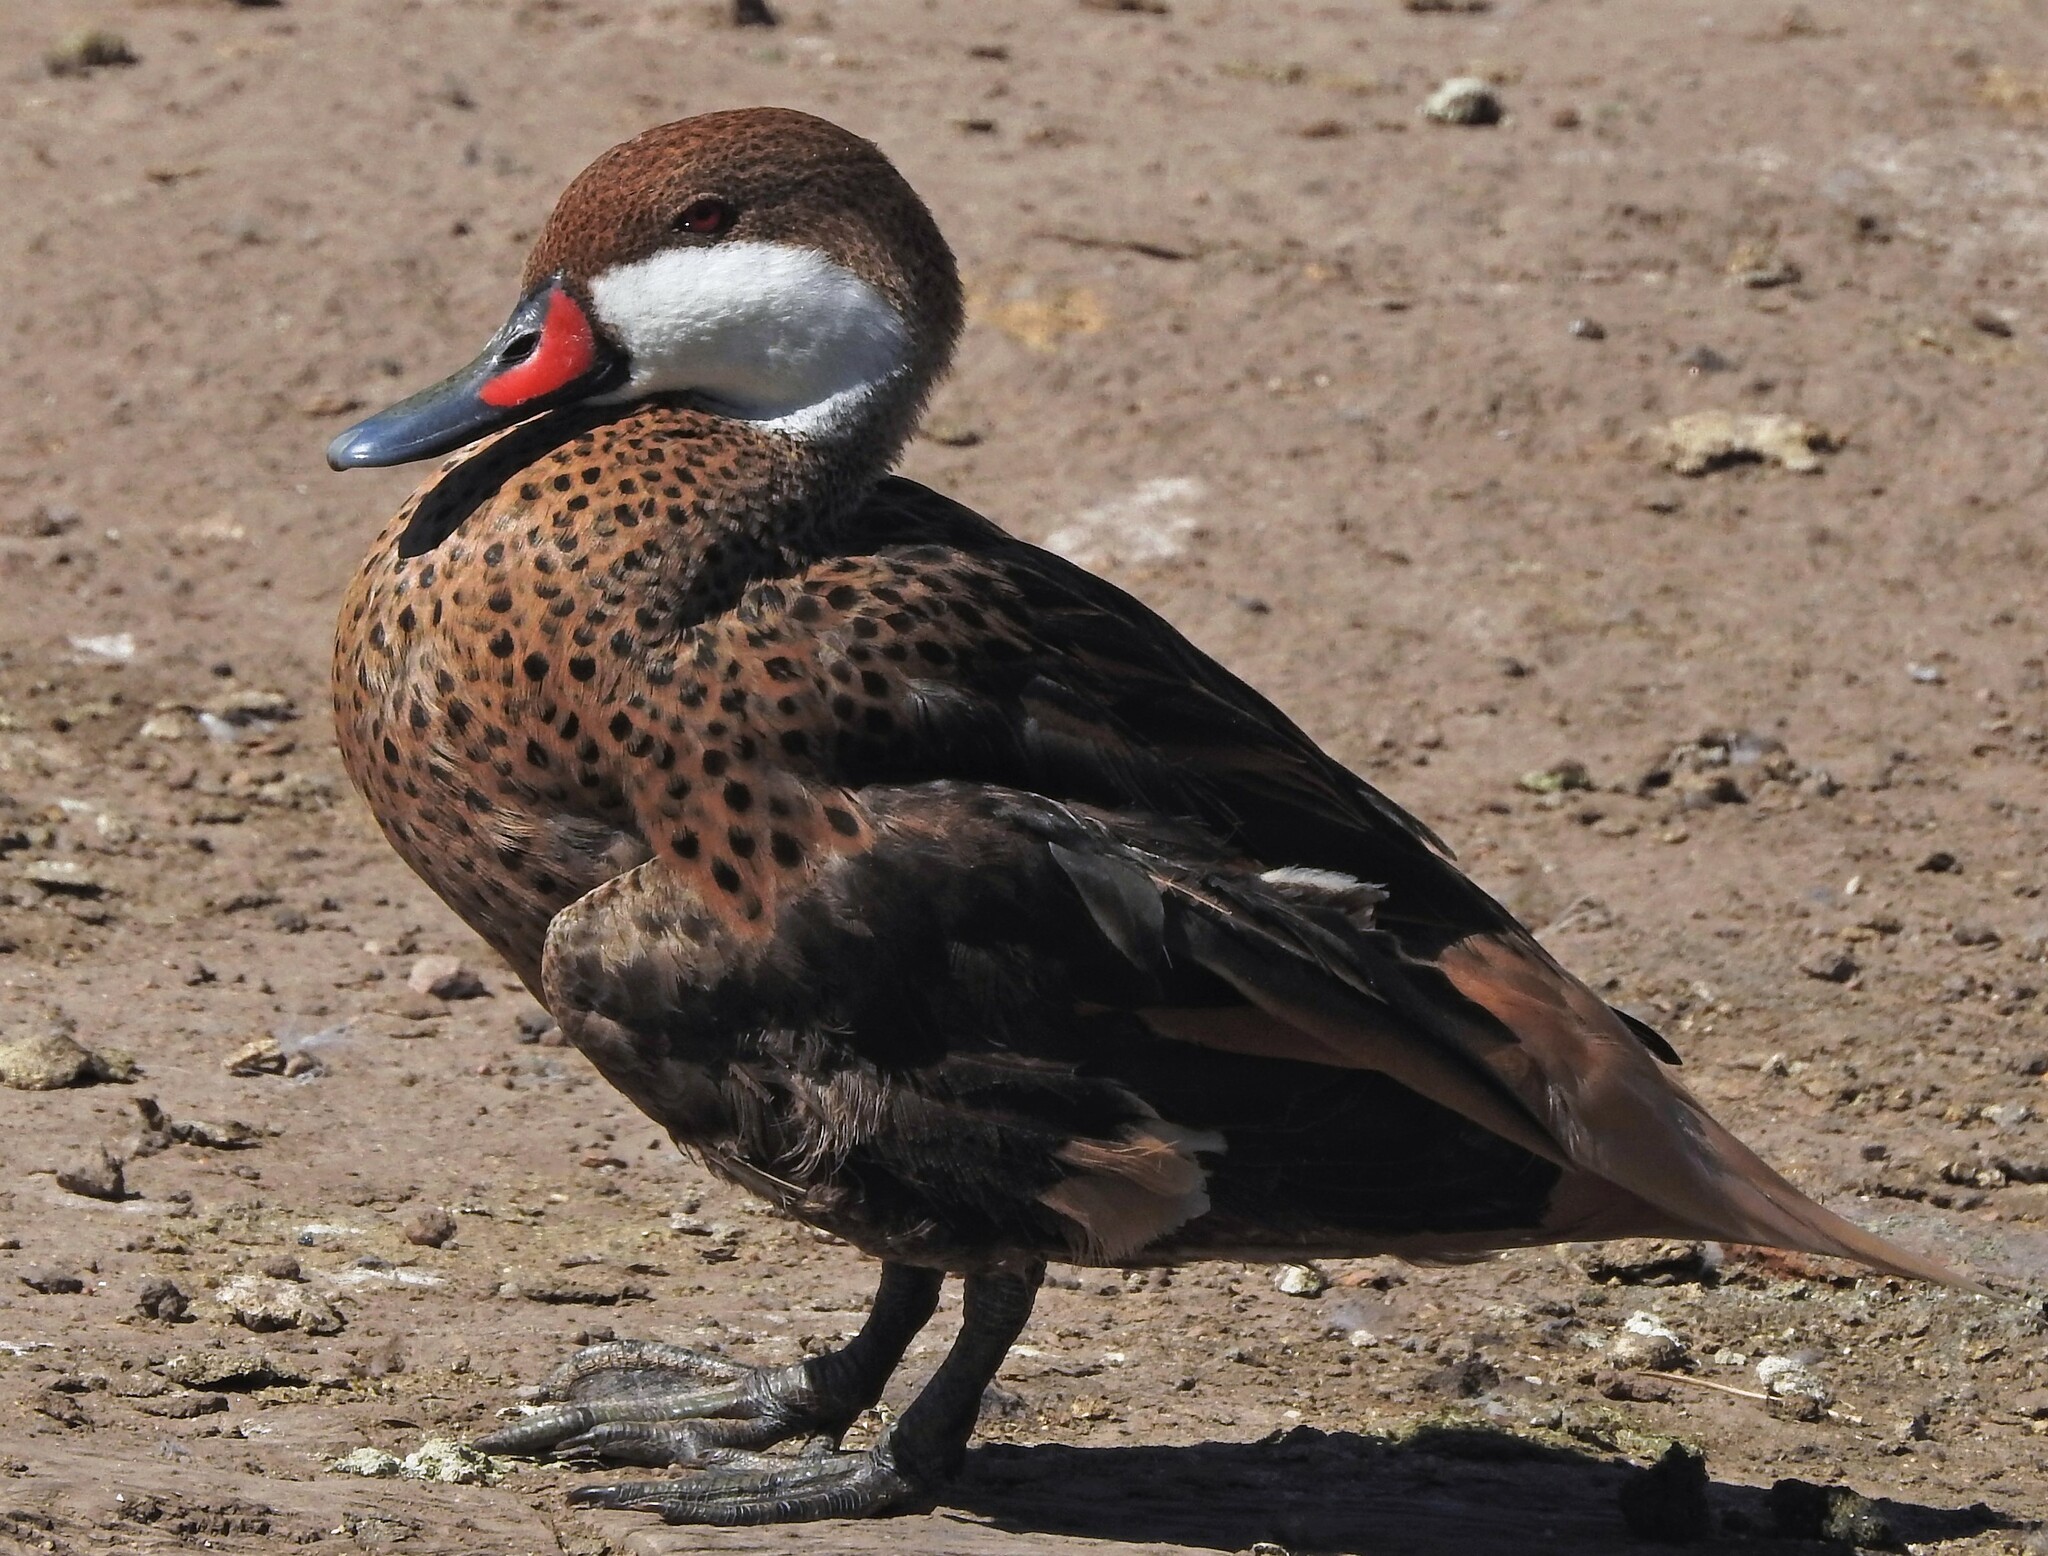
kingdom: Animalia
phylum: Chordata
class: Aves
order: Anseriformes
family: Anatidae
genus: Anas
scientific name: Anas bahamensis
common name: White-cheeked pintail
